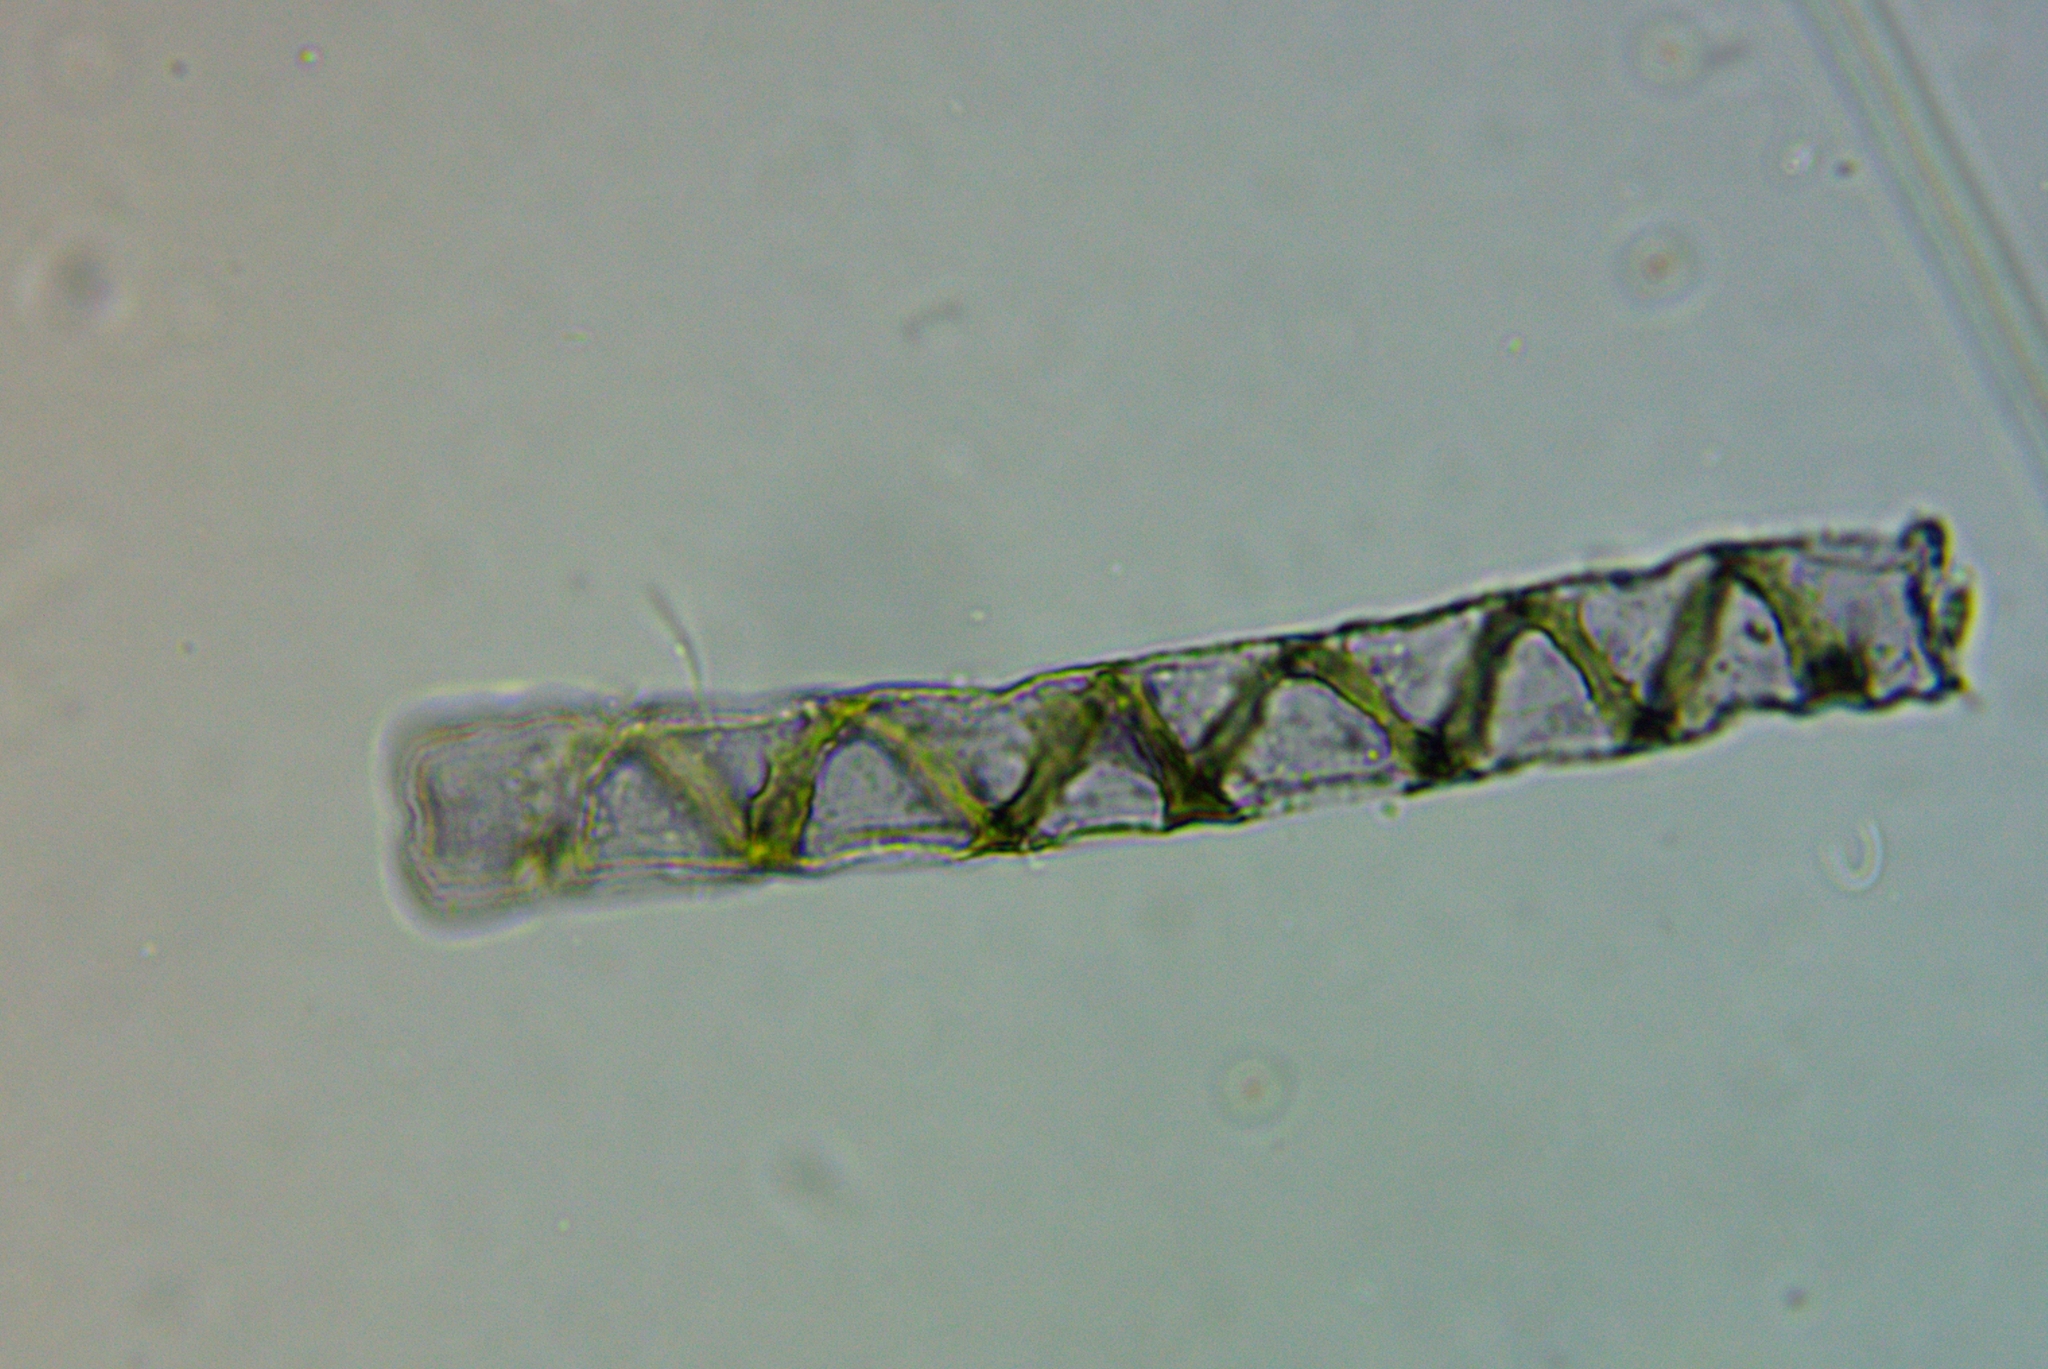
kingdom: Plantae
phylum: Charophyta
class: Zygnematophyceae
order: Zygnematales
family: Zygnemataceae
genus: Spirogyra
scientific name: Spirogyra
